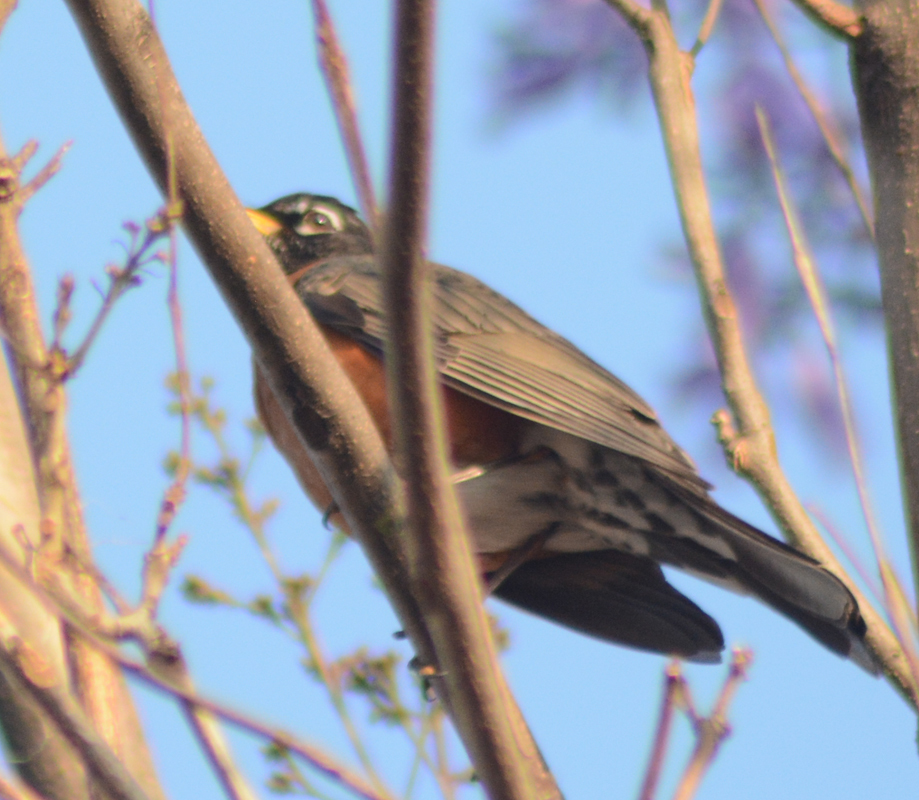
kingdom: Animalia
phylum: Chordata
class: Aves
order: Passeriformes
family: Turdidae
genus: Turdus
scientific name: Turdus migratorius
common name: American robin
